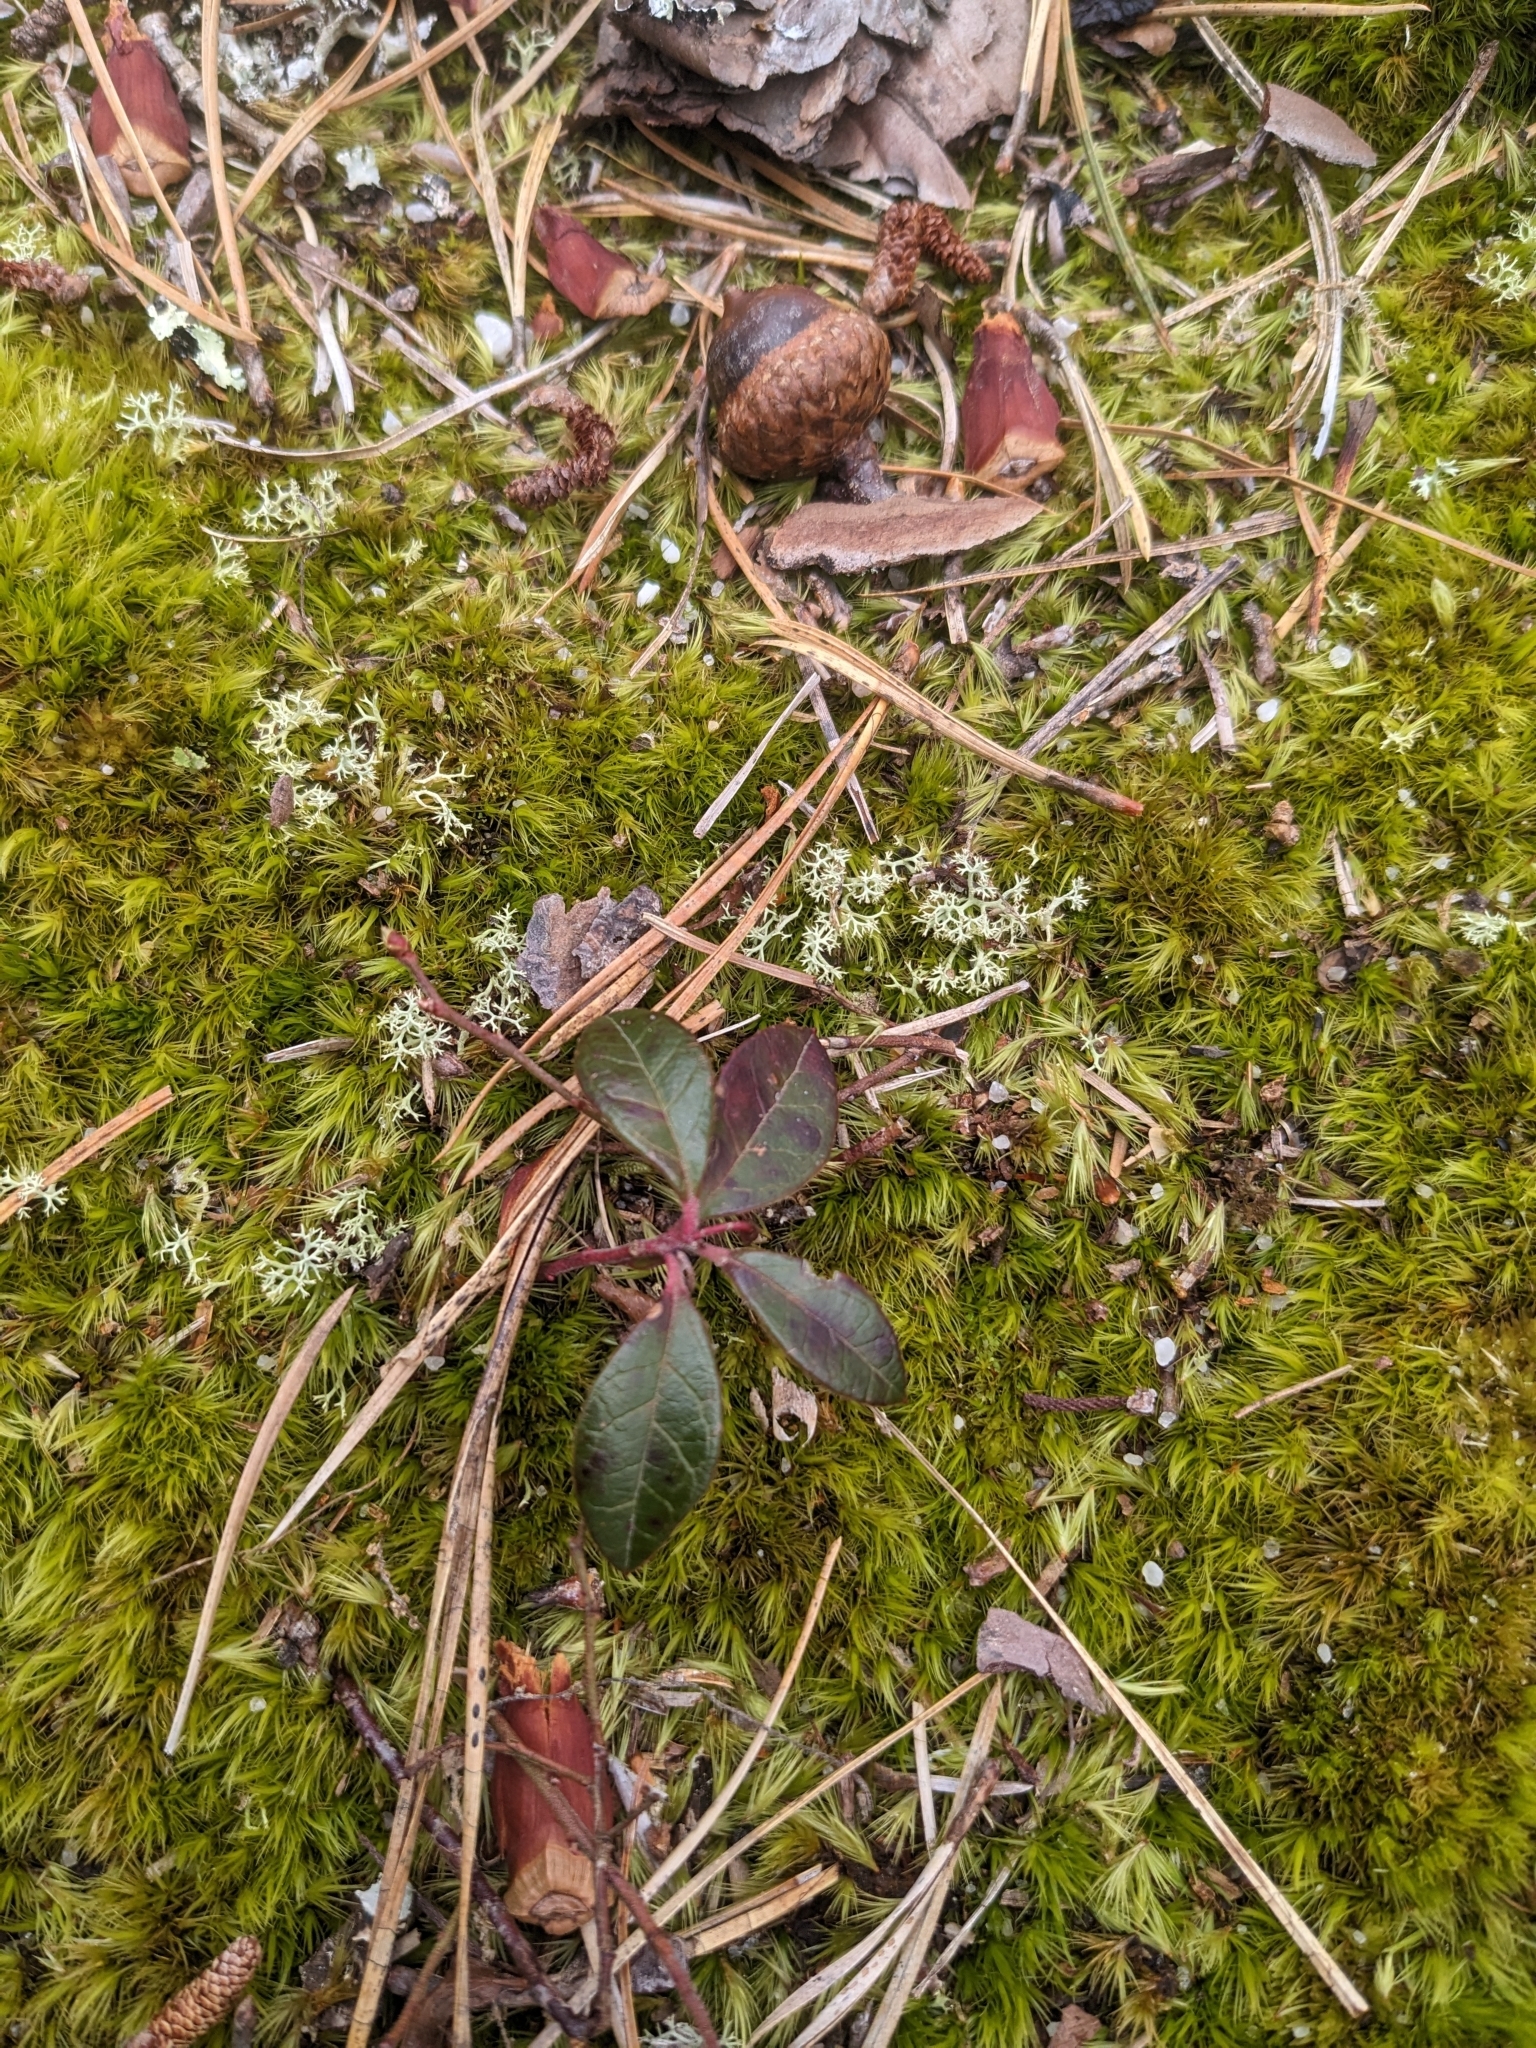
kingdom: Plantae
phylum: Tracheophyta
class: Magnoliopsida
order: Ericales
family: Ericaceae
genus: Gaultheria
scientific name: Gaultheria procumbens
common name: Checkerberry
